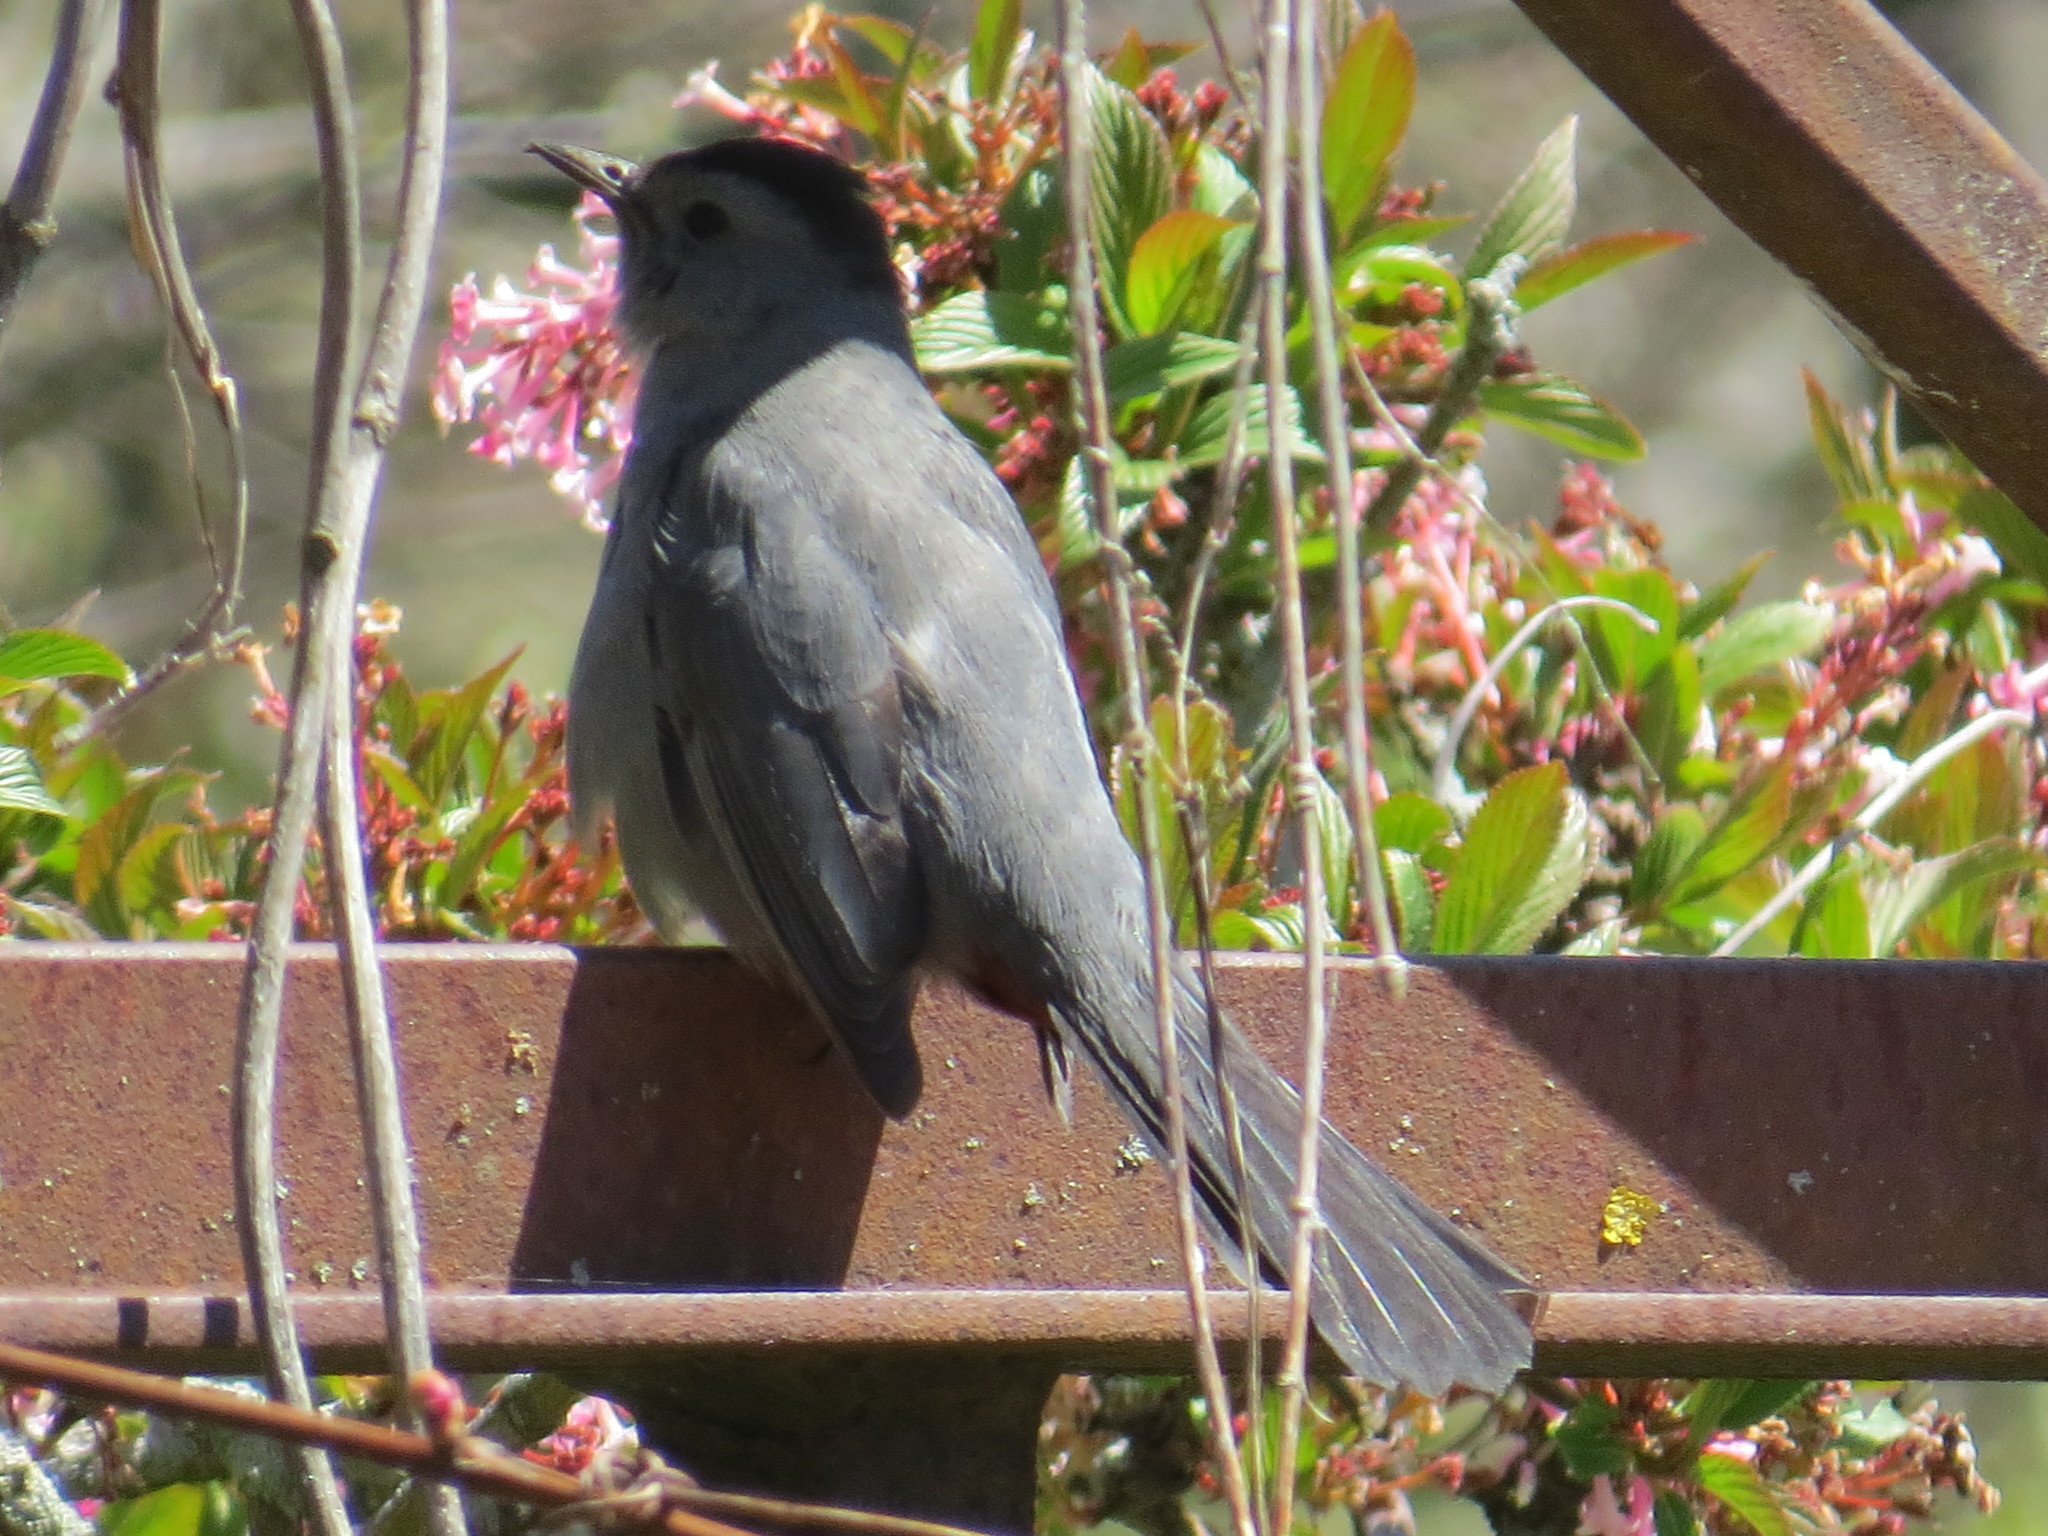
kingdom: Animalia
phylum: Chordata
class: Aves
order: Passeriformes
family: Mimidae
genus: Dumetella
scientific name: Dumetella carolinensis
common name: Gray catbird
